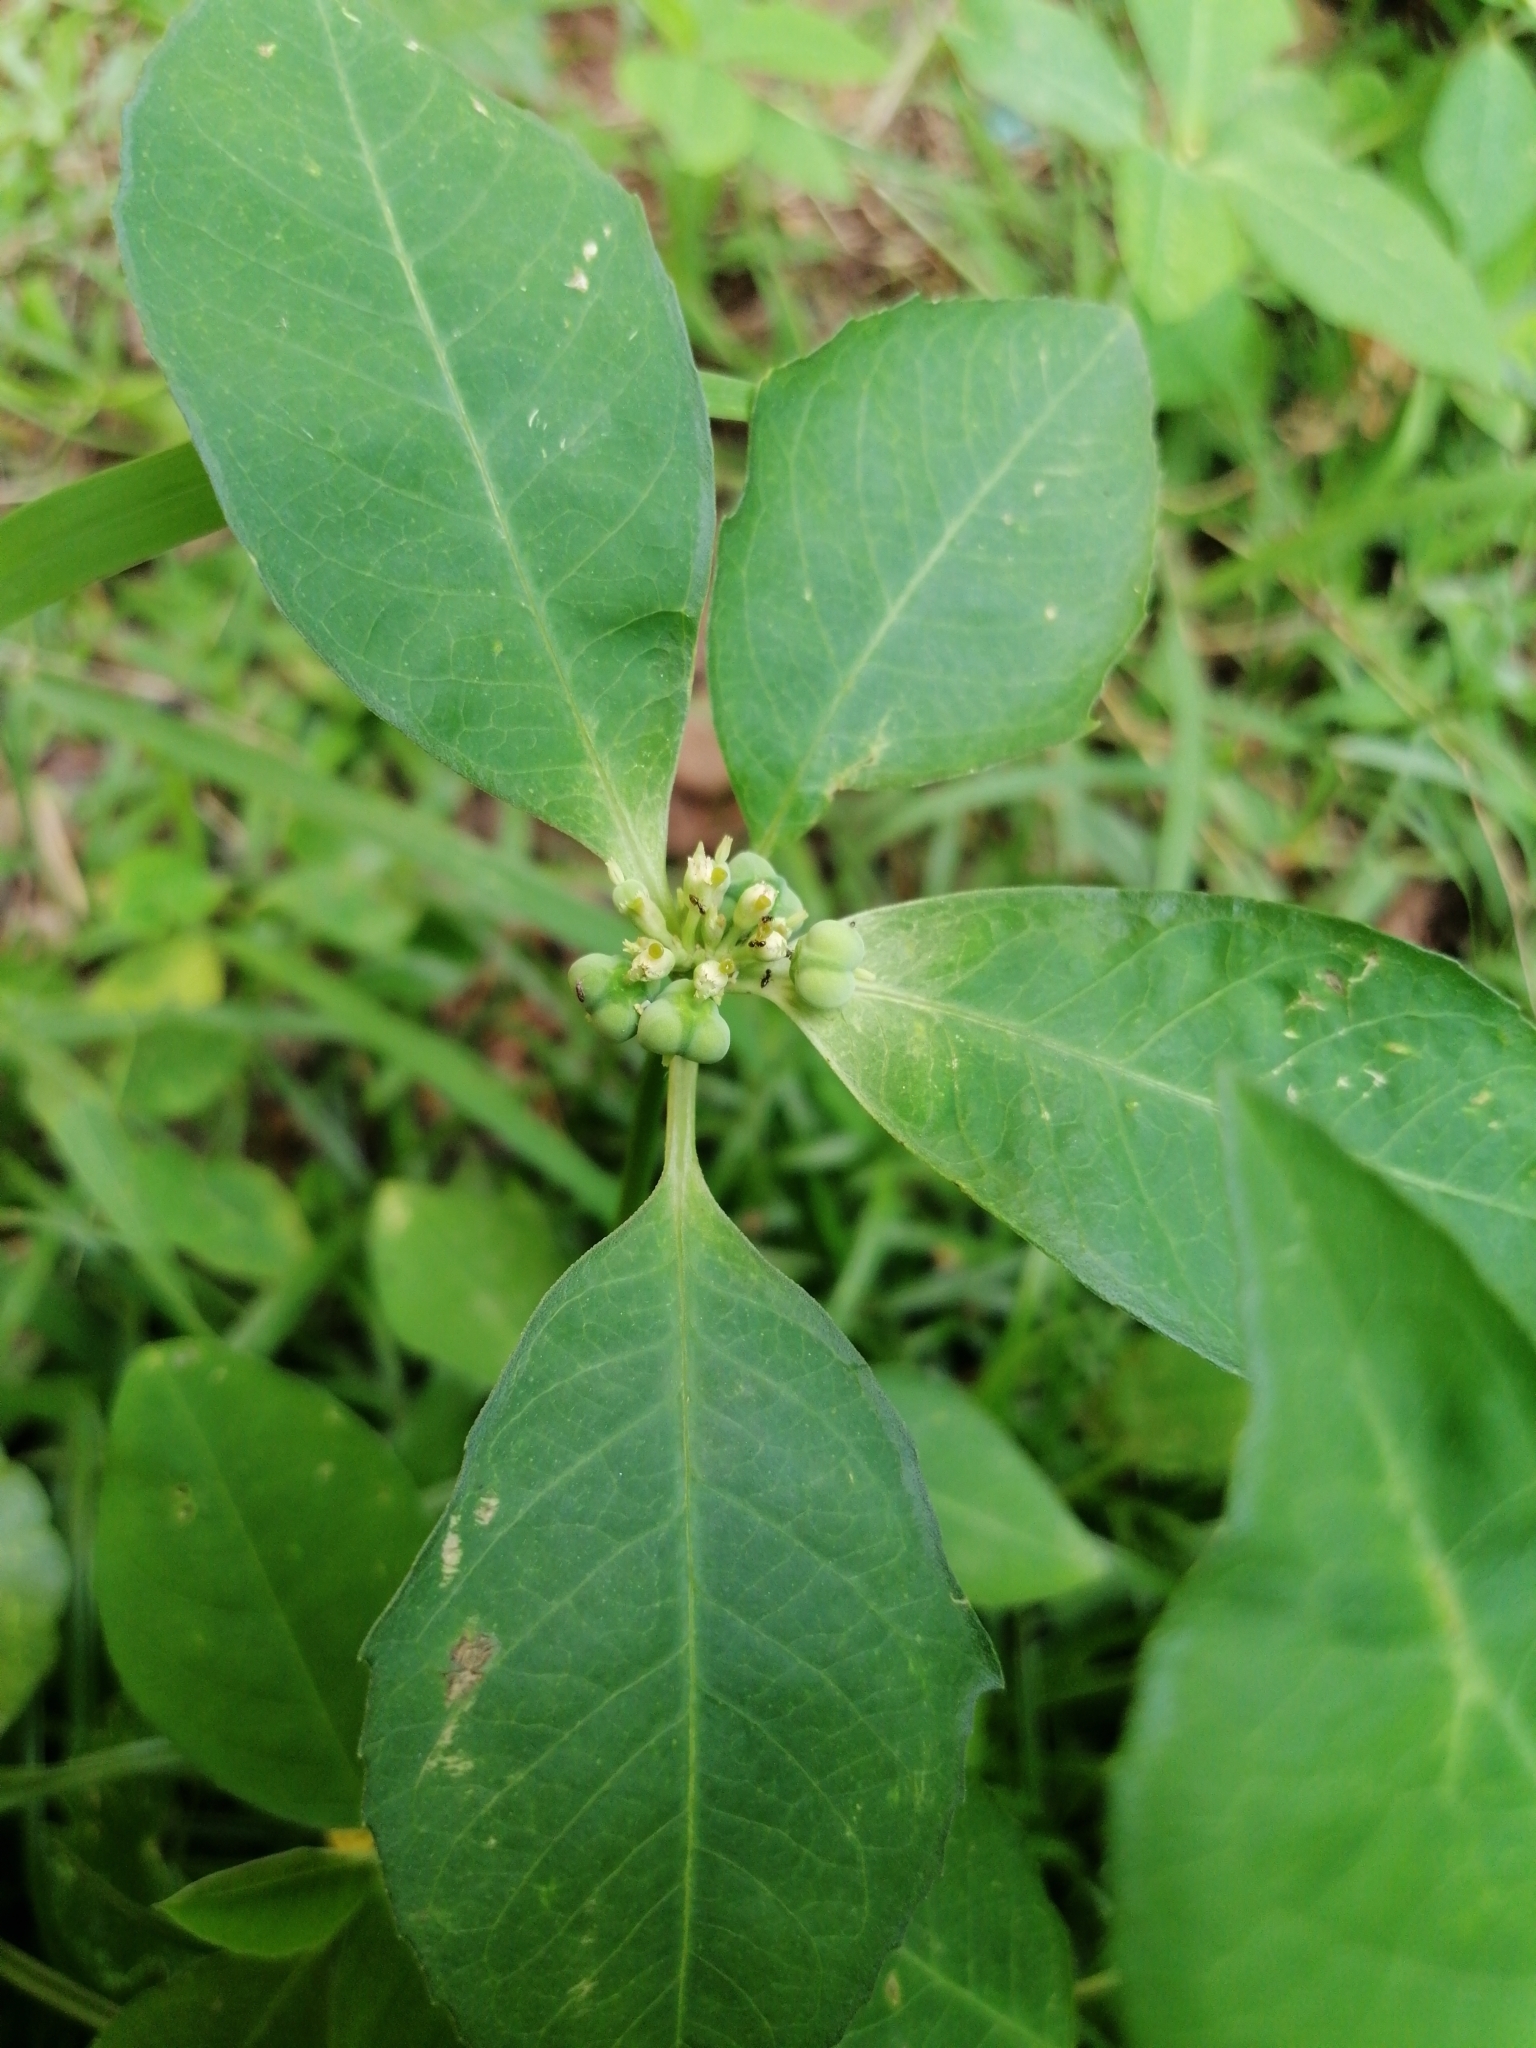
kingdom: Plantae
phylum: Tracheophyta
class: Magnoliopsida
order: Malpighiales
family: Euphorbiaceae
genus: Euphorbia
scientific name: Euphorbia heterophylla
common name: Mexican fireplant
